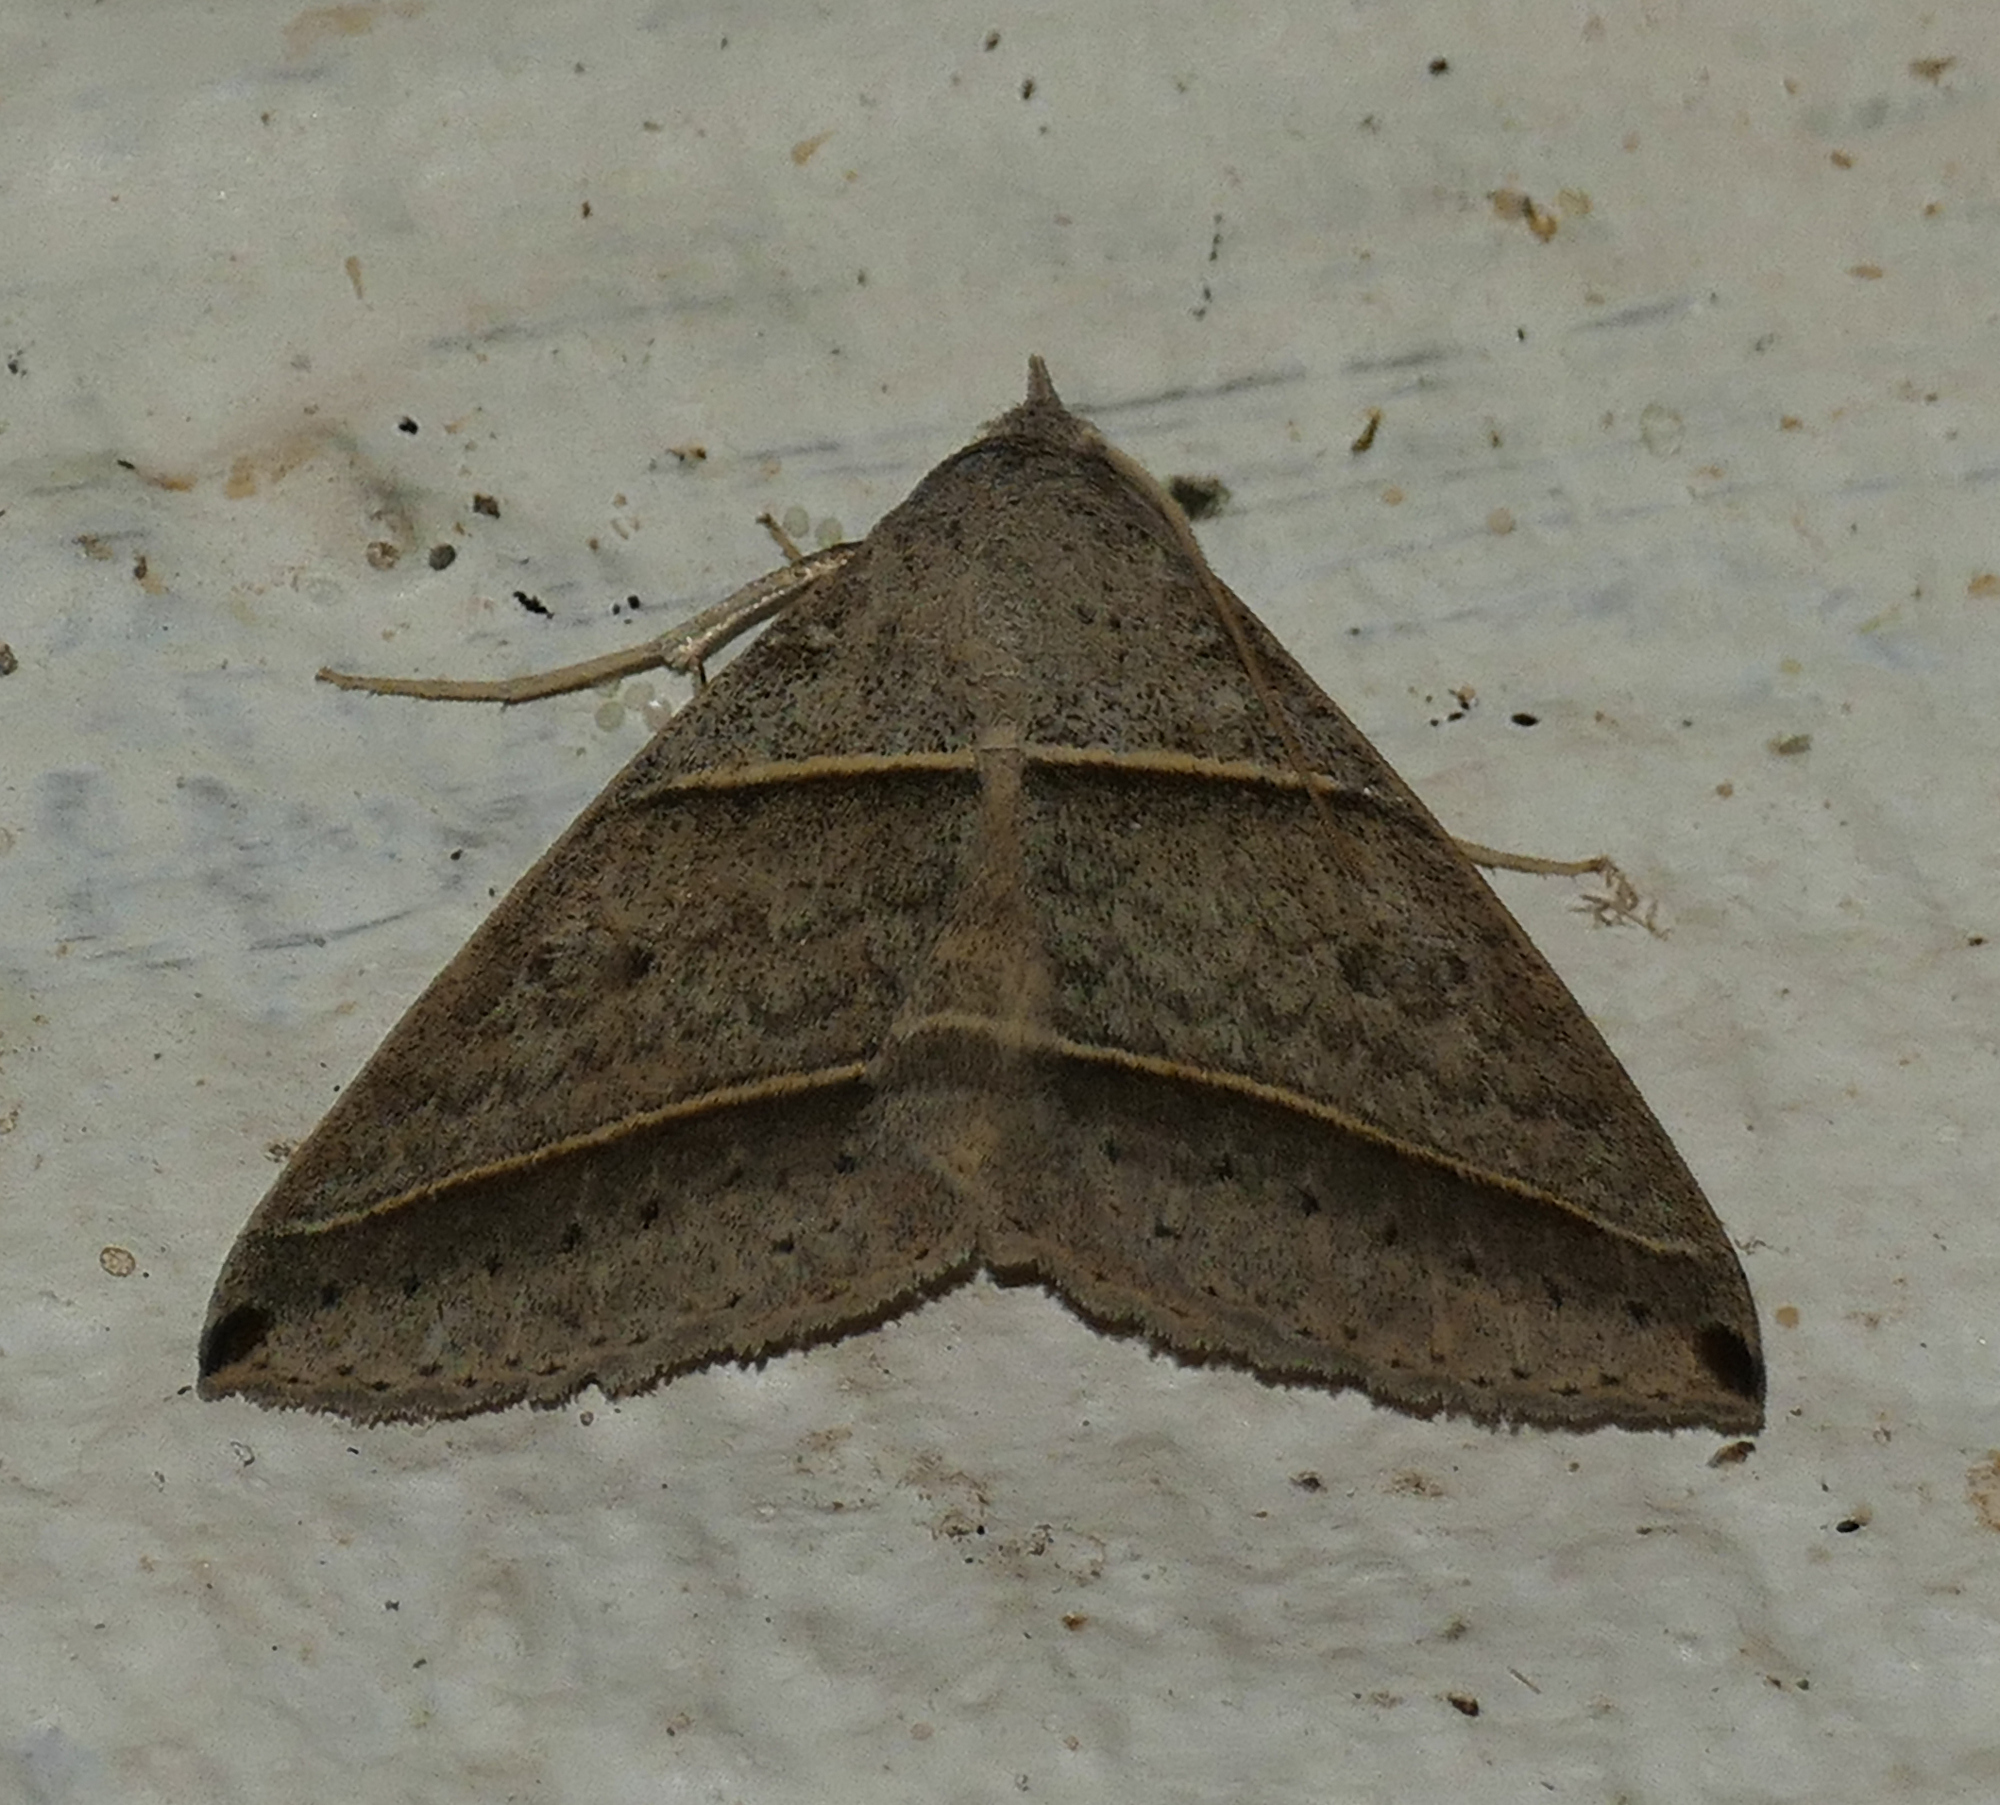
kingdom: Animalia
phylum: Arthropoda
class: Insecta
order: Lepidoptera
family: Erebidae
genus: Ptichodis
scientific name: Ptichodis vinculum
